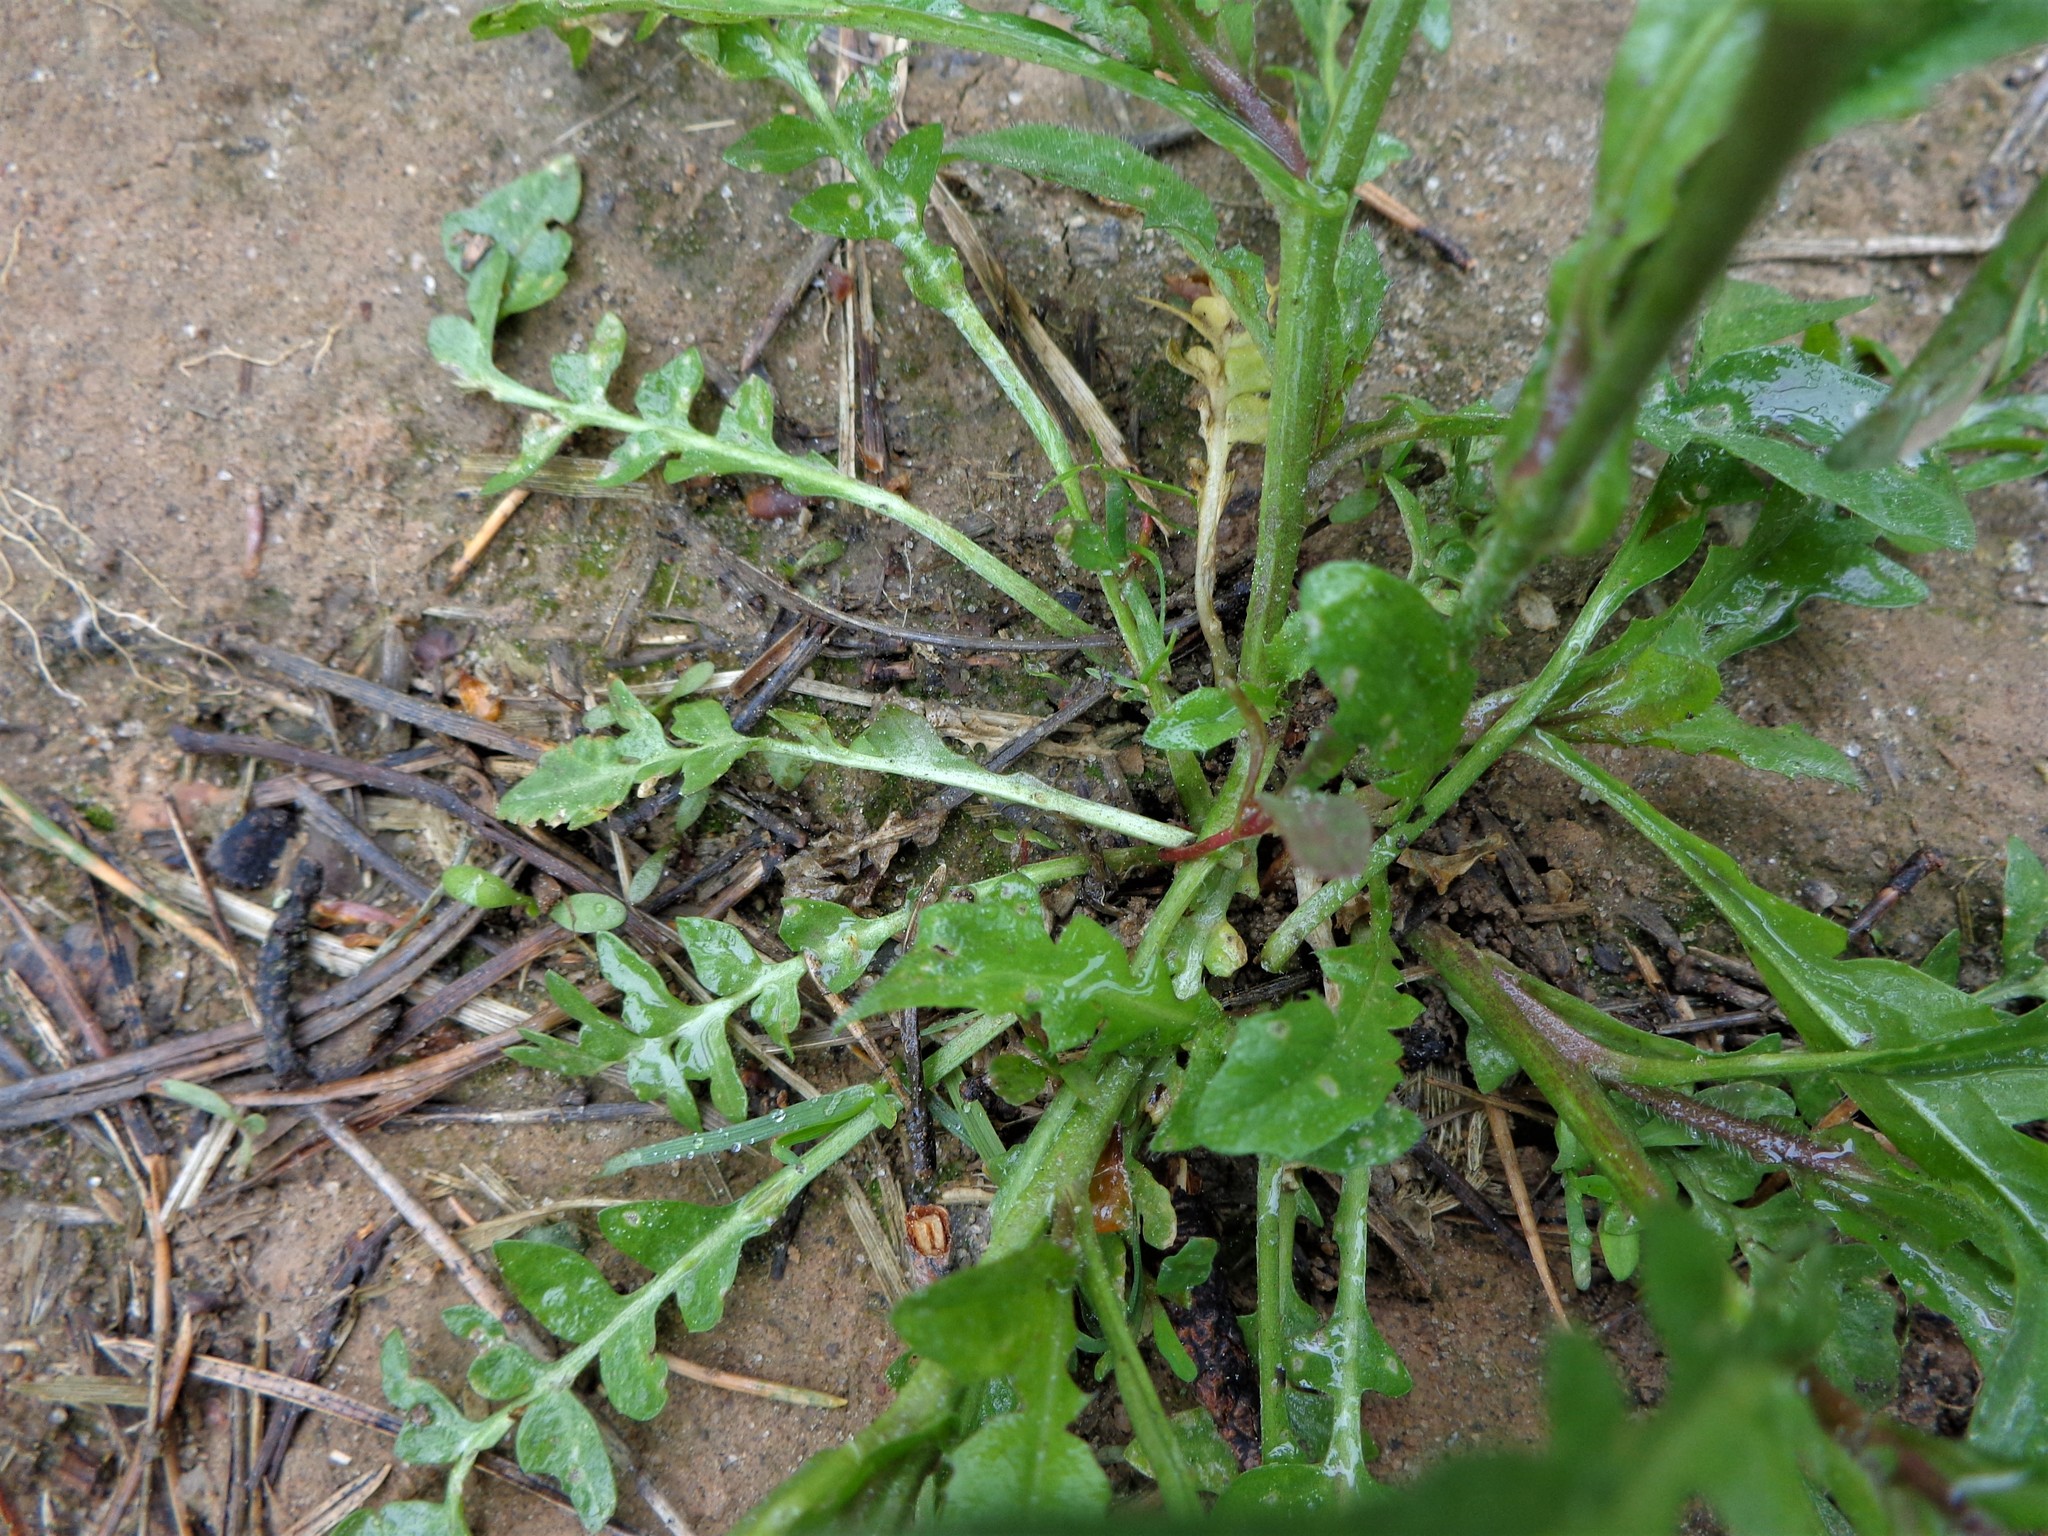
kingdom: Plantae
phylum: Tracheophyta
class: Magnoliopsida
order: Brassicales
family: Brassicaceae
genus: Capsella
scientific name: Capsella bursa-pastoris
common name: Shepherd's purse
